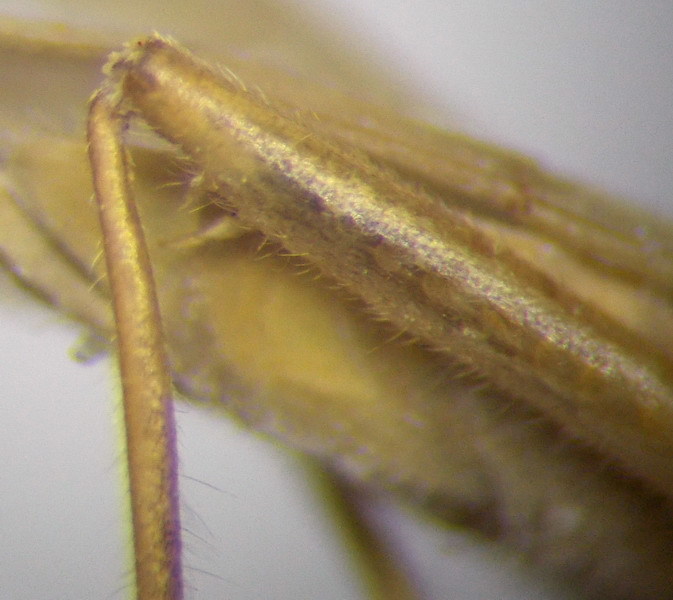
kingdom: Animalia
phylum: Arthropoda
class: Insecta
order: Hemiptera
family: Miridae
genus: Stenodema
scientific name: Stenodema calcarata
